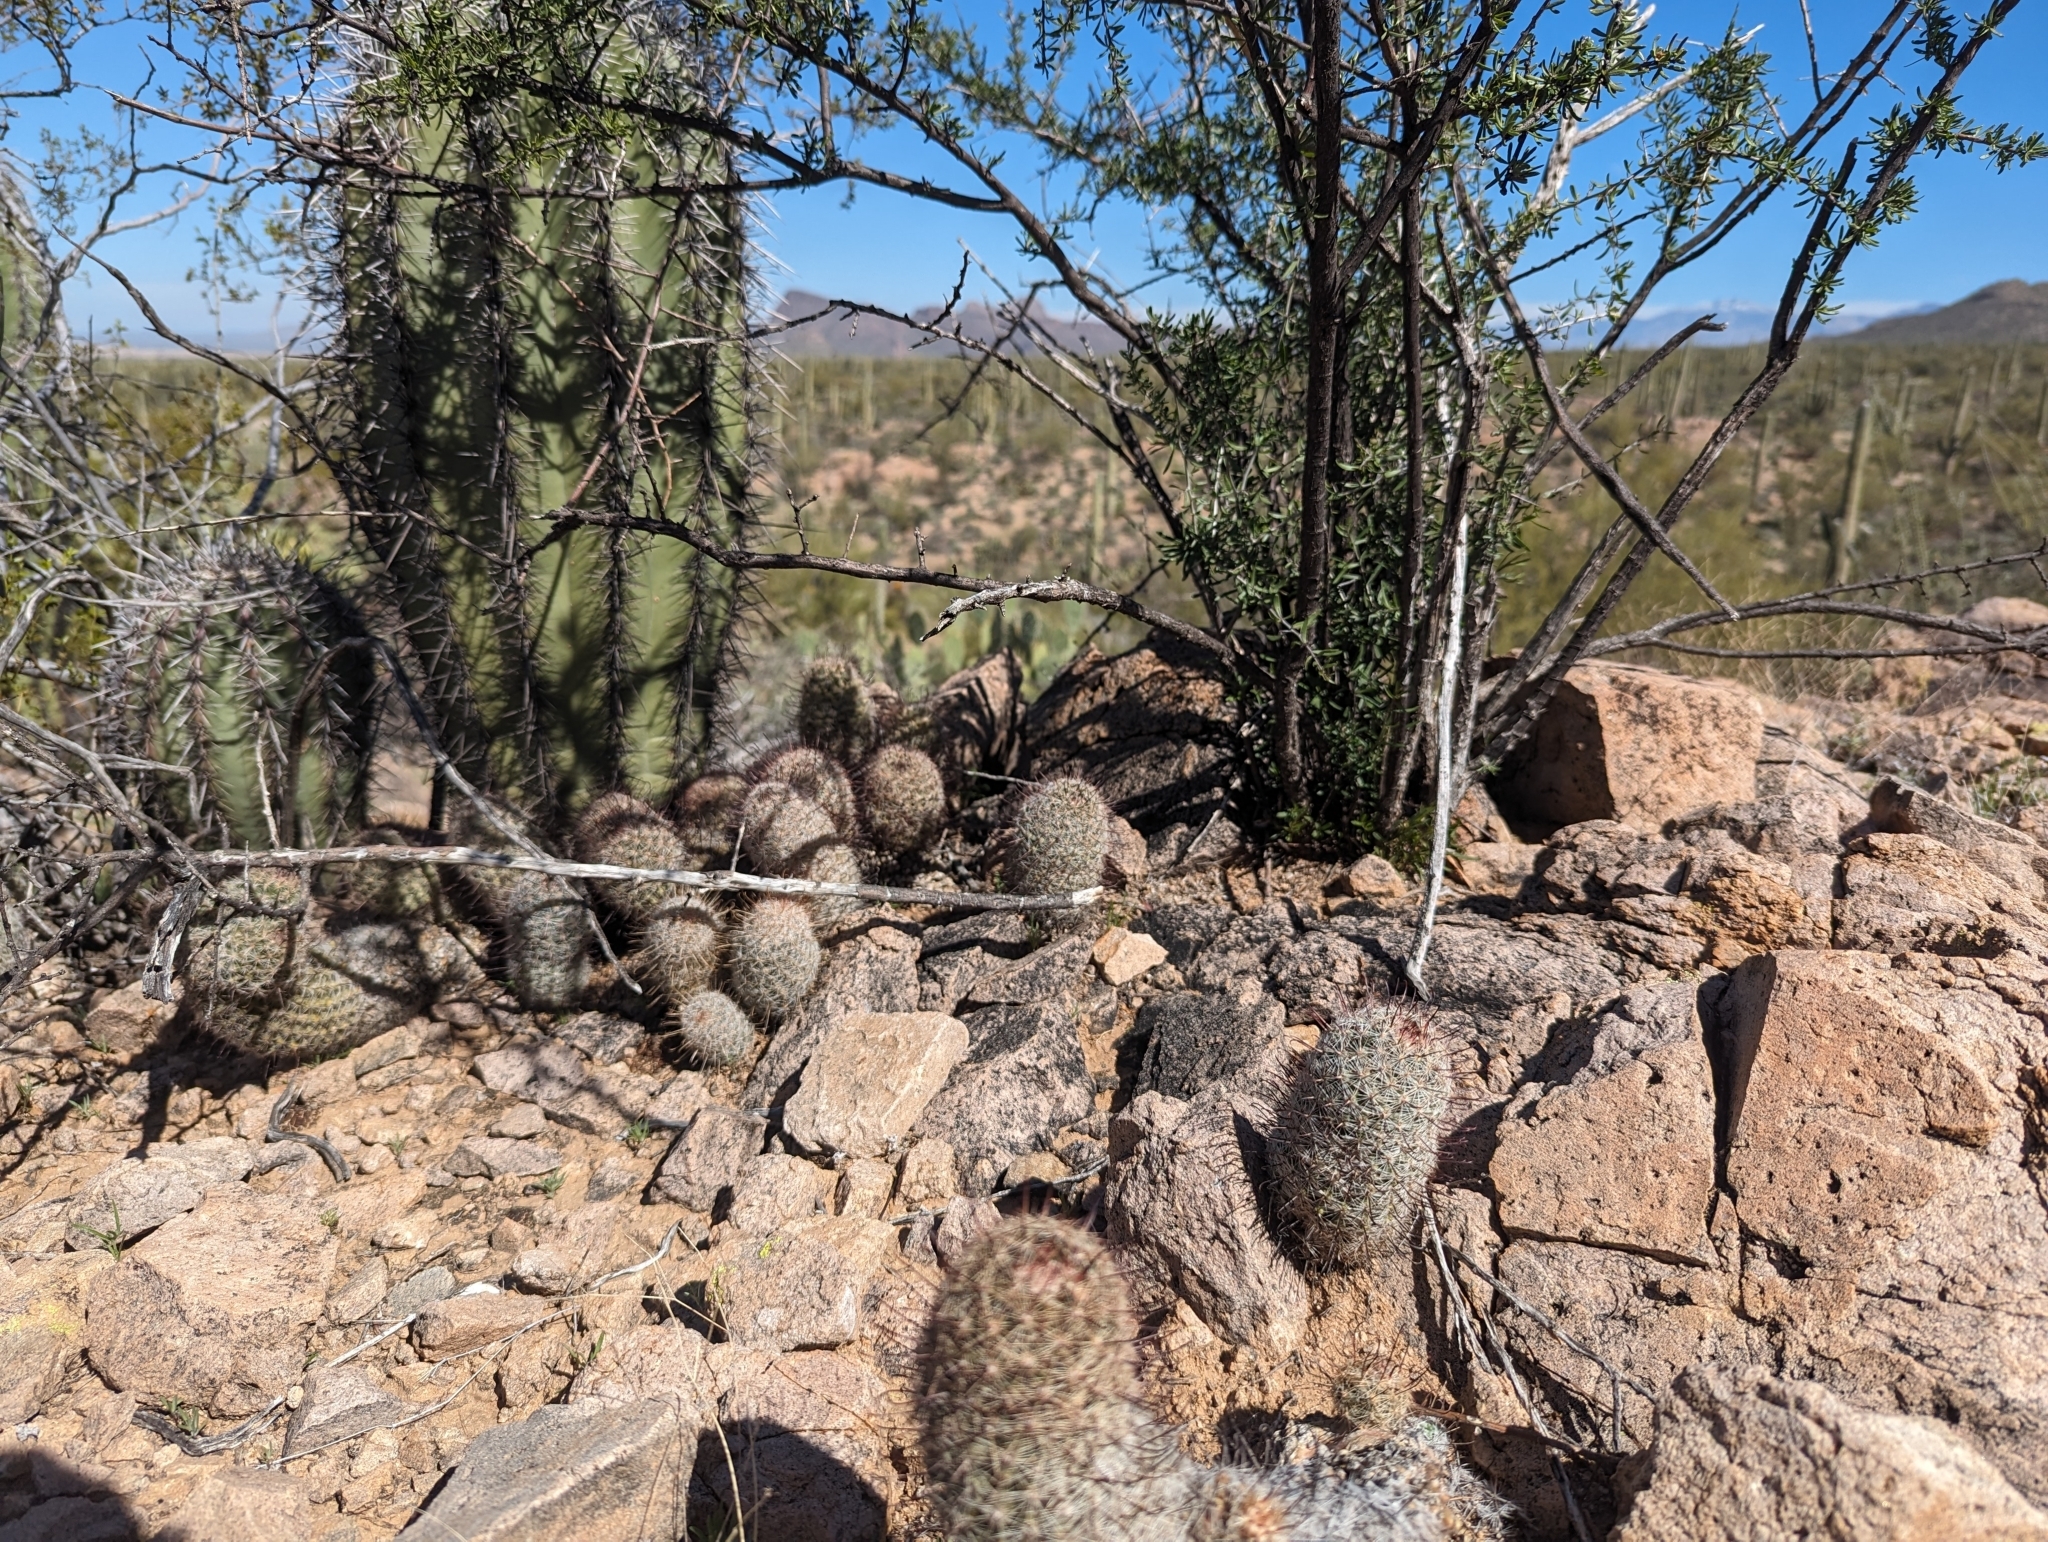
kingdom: Plantae
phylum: Tracheophyta
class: Magnoliopsida
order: Caryophyllales
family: Cactaceae
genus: Cochemiea
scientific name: Cochemiea grahamii
